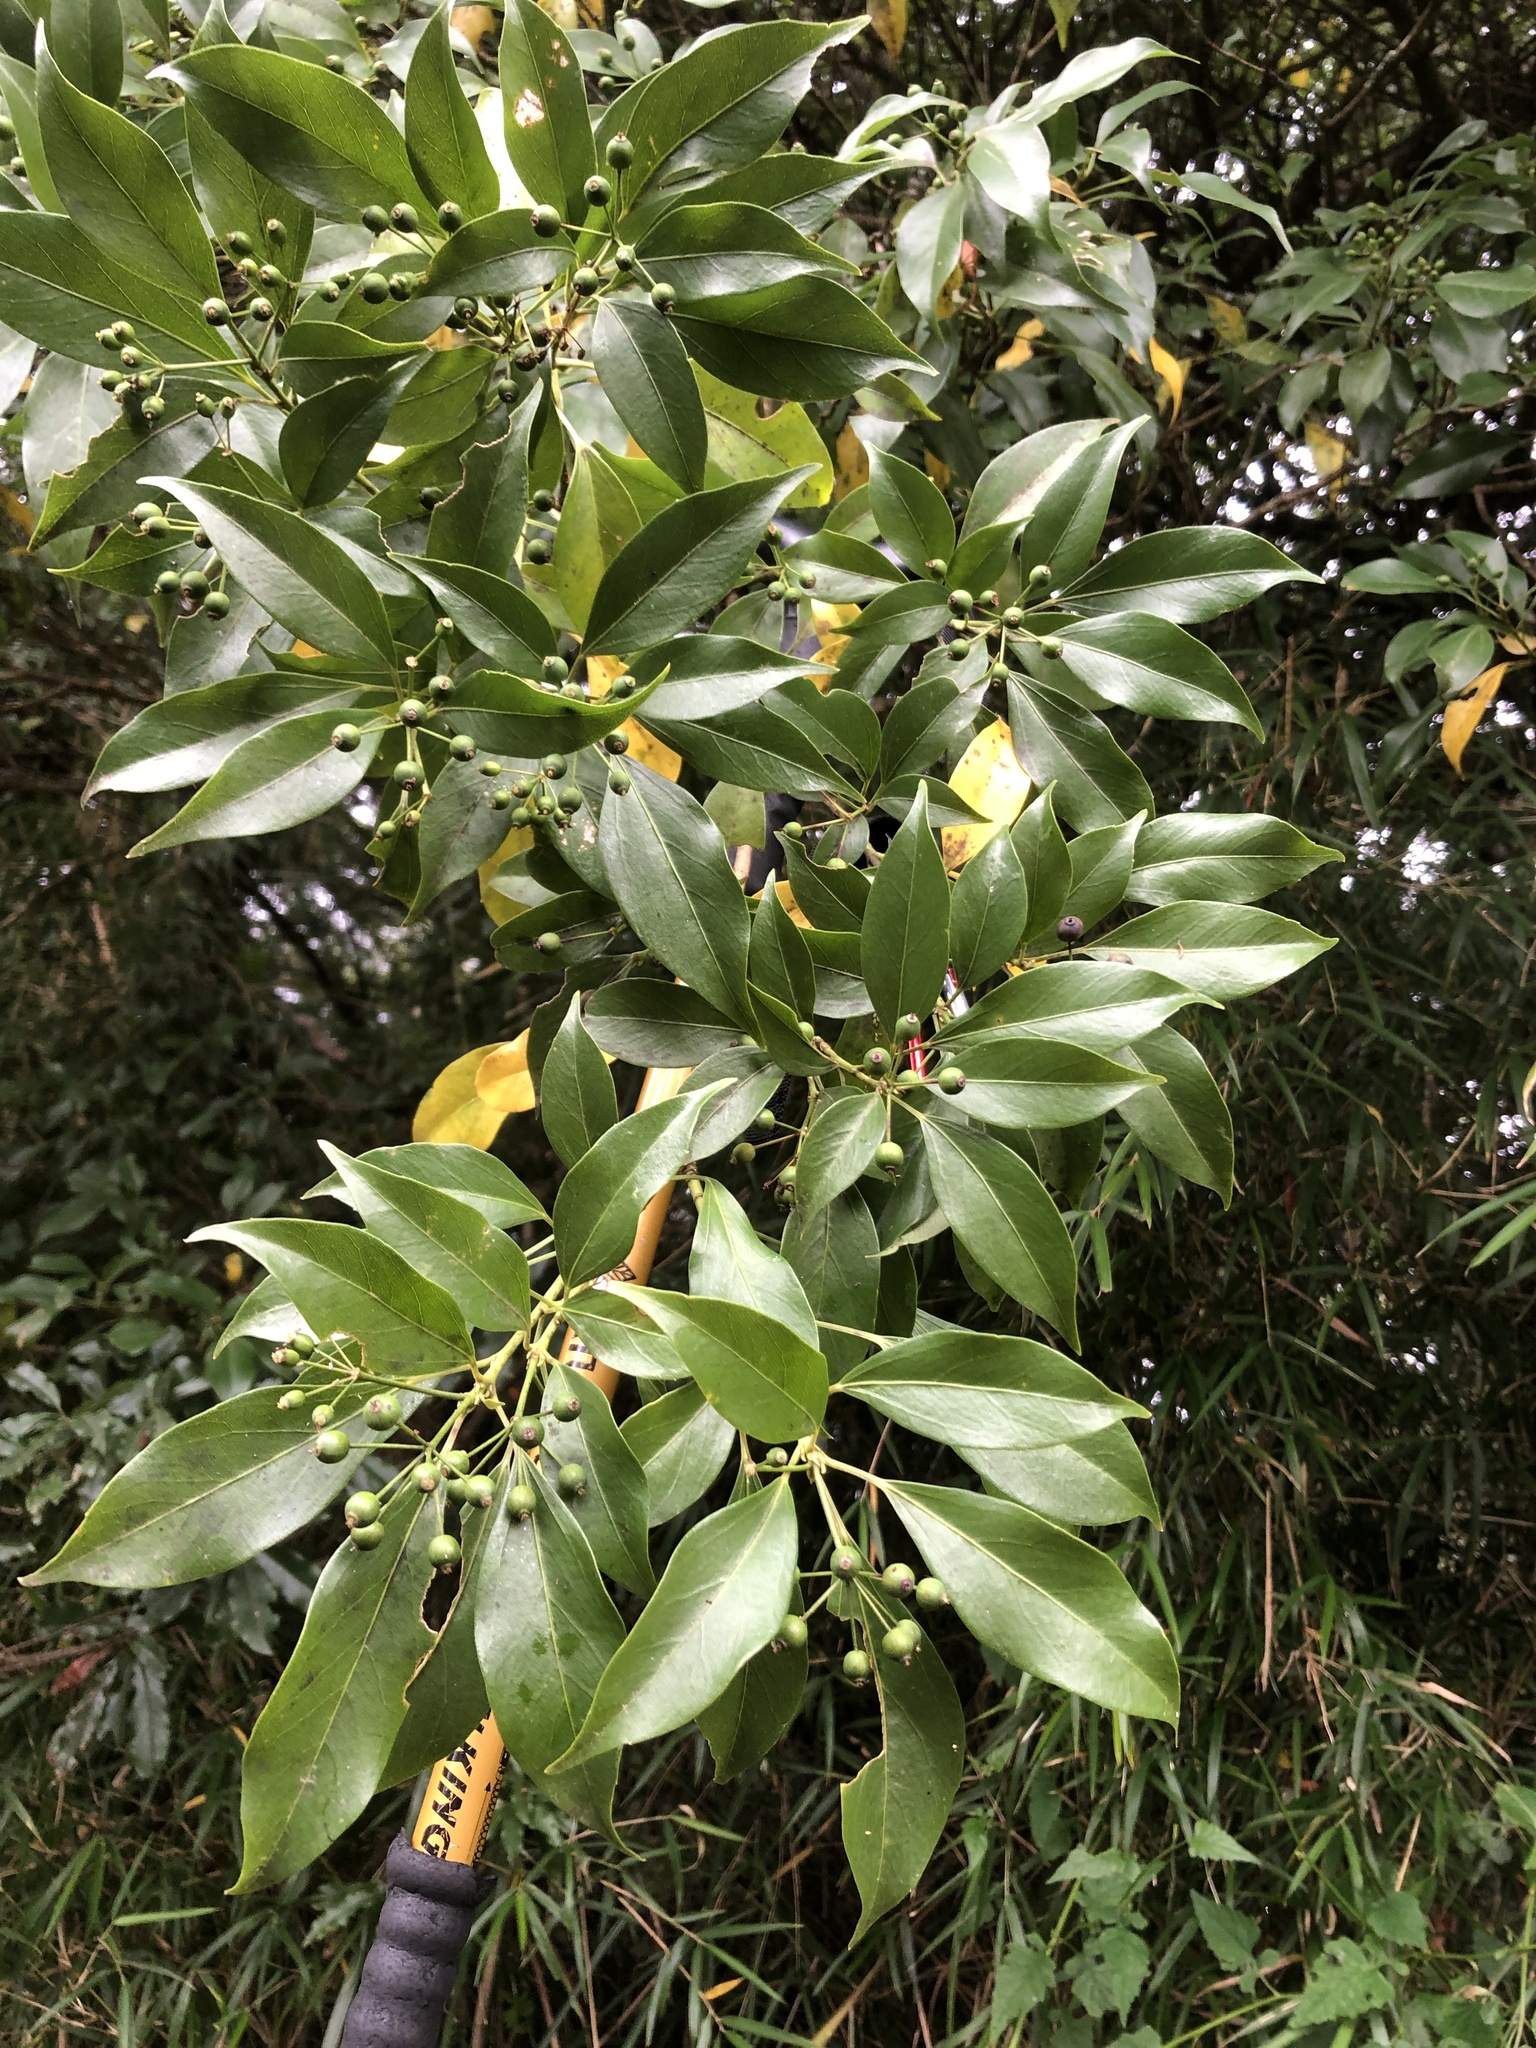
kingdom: Plantae
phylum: Tracheophyta
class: Magnoliopsida
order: Apiales
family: Araliaceae
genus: Dendropanax
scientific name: Dendropanax dentiger
